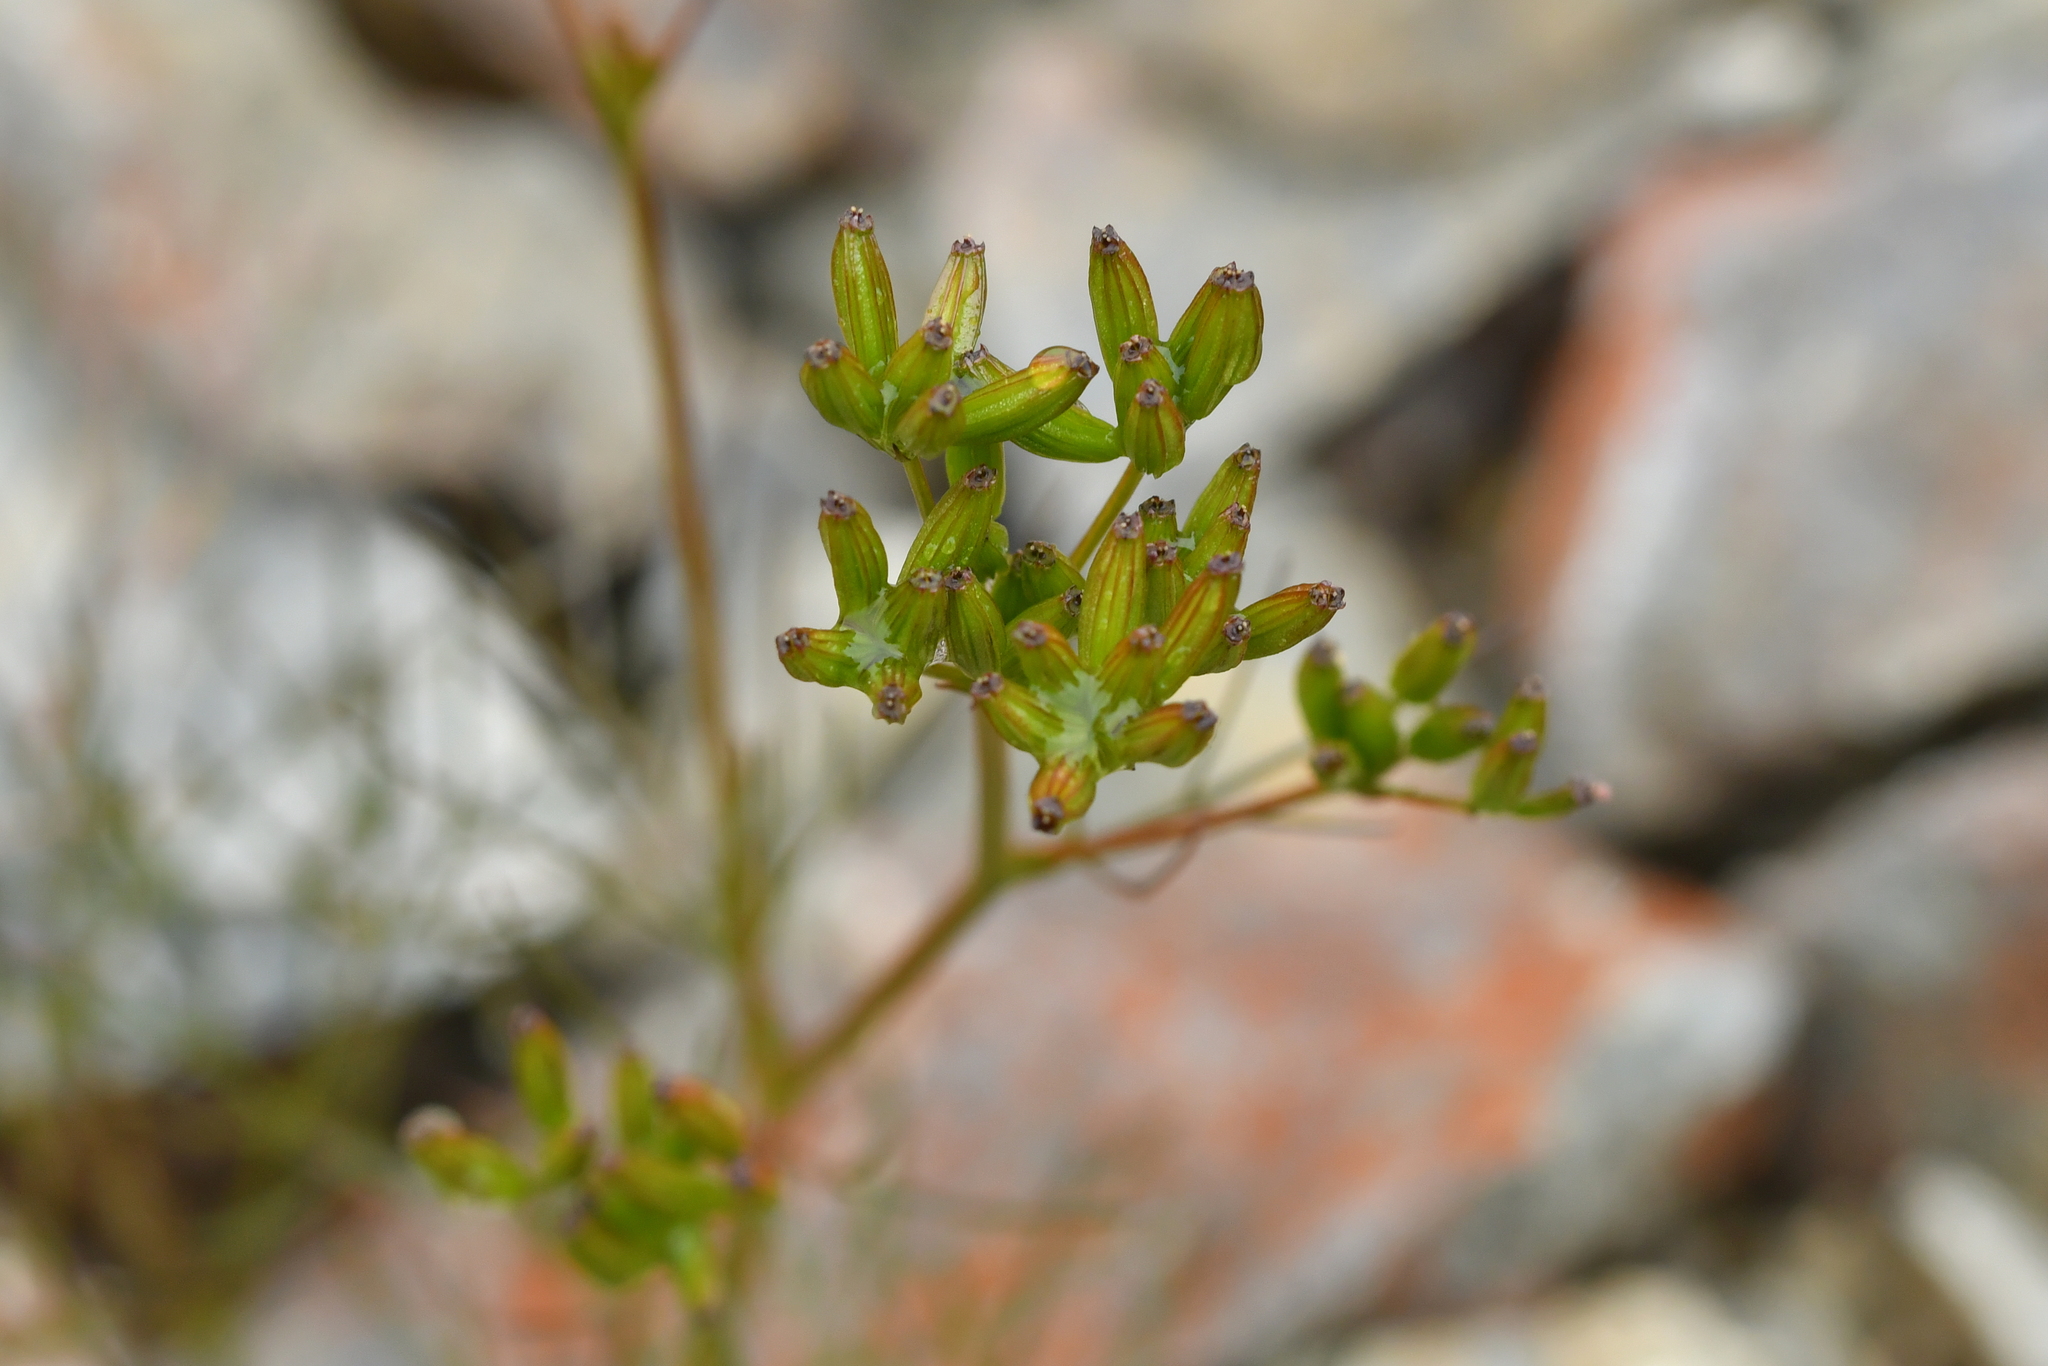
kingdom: Plantae
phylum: Tracheophyta
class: Magnoliopsida
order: Apiales
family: Apiaceae
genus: Anisotome
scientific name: Anisotome filifolia
